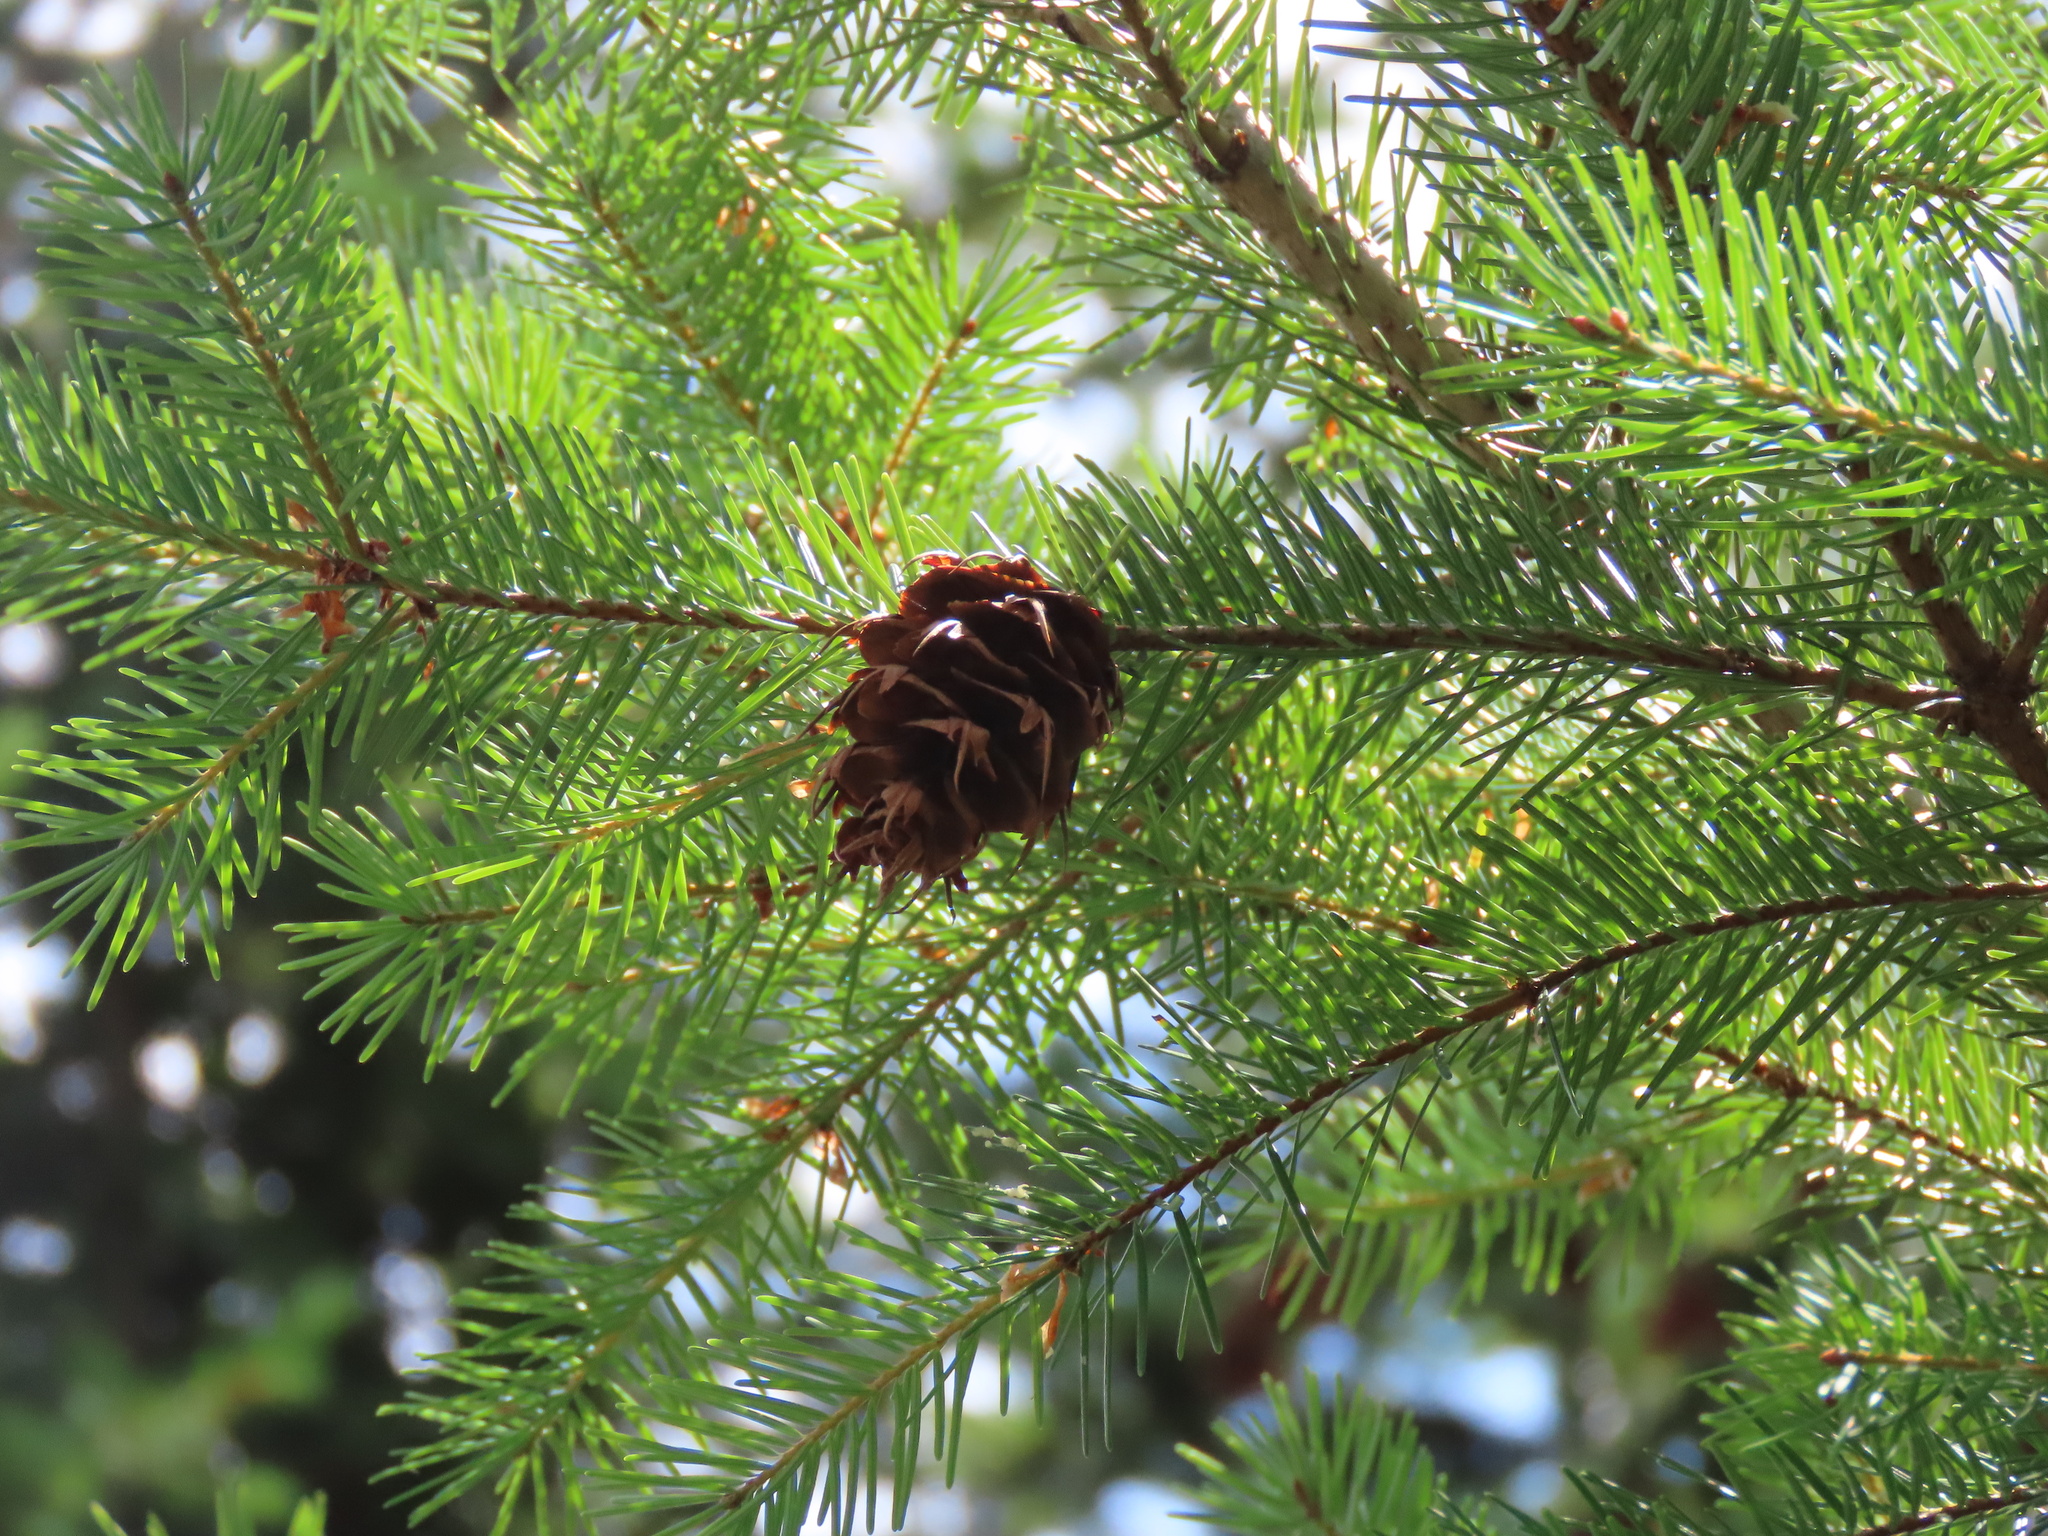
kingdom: Plantae
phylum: Tracheophyta
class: Pinopsida
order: Pinales
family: Pinaceae
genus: Pseudotsuga
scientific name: Pseudotsuga menziesii
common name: Douglas fir
